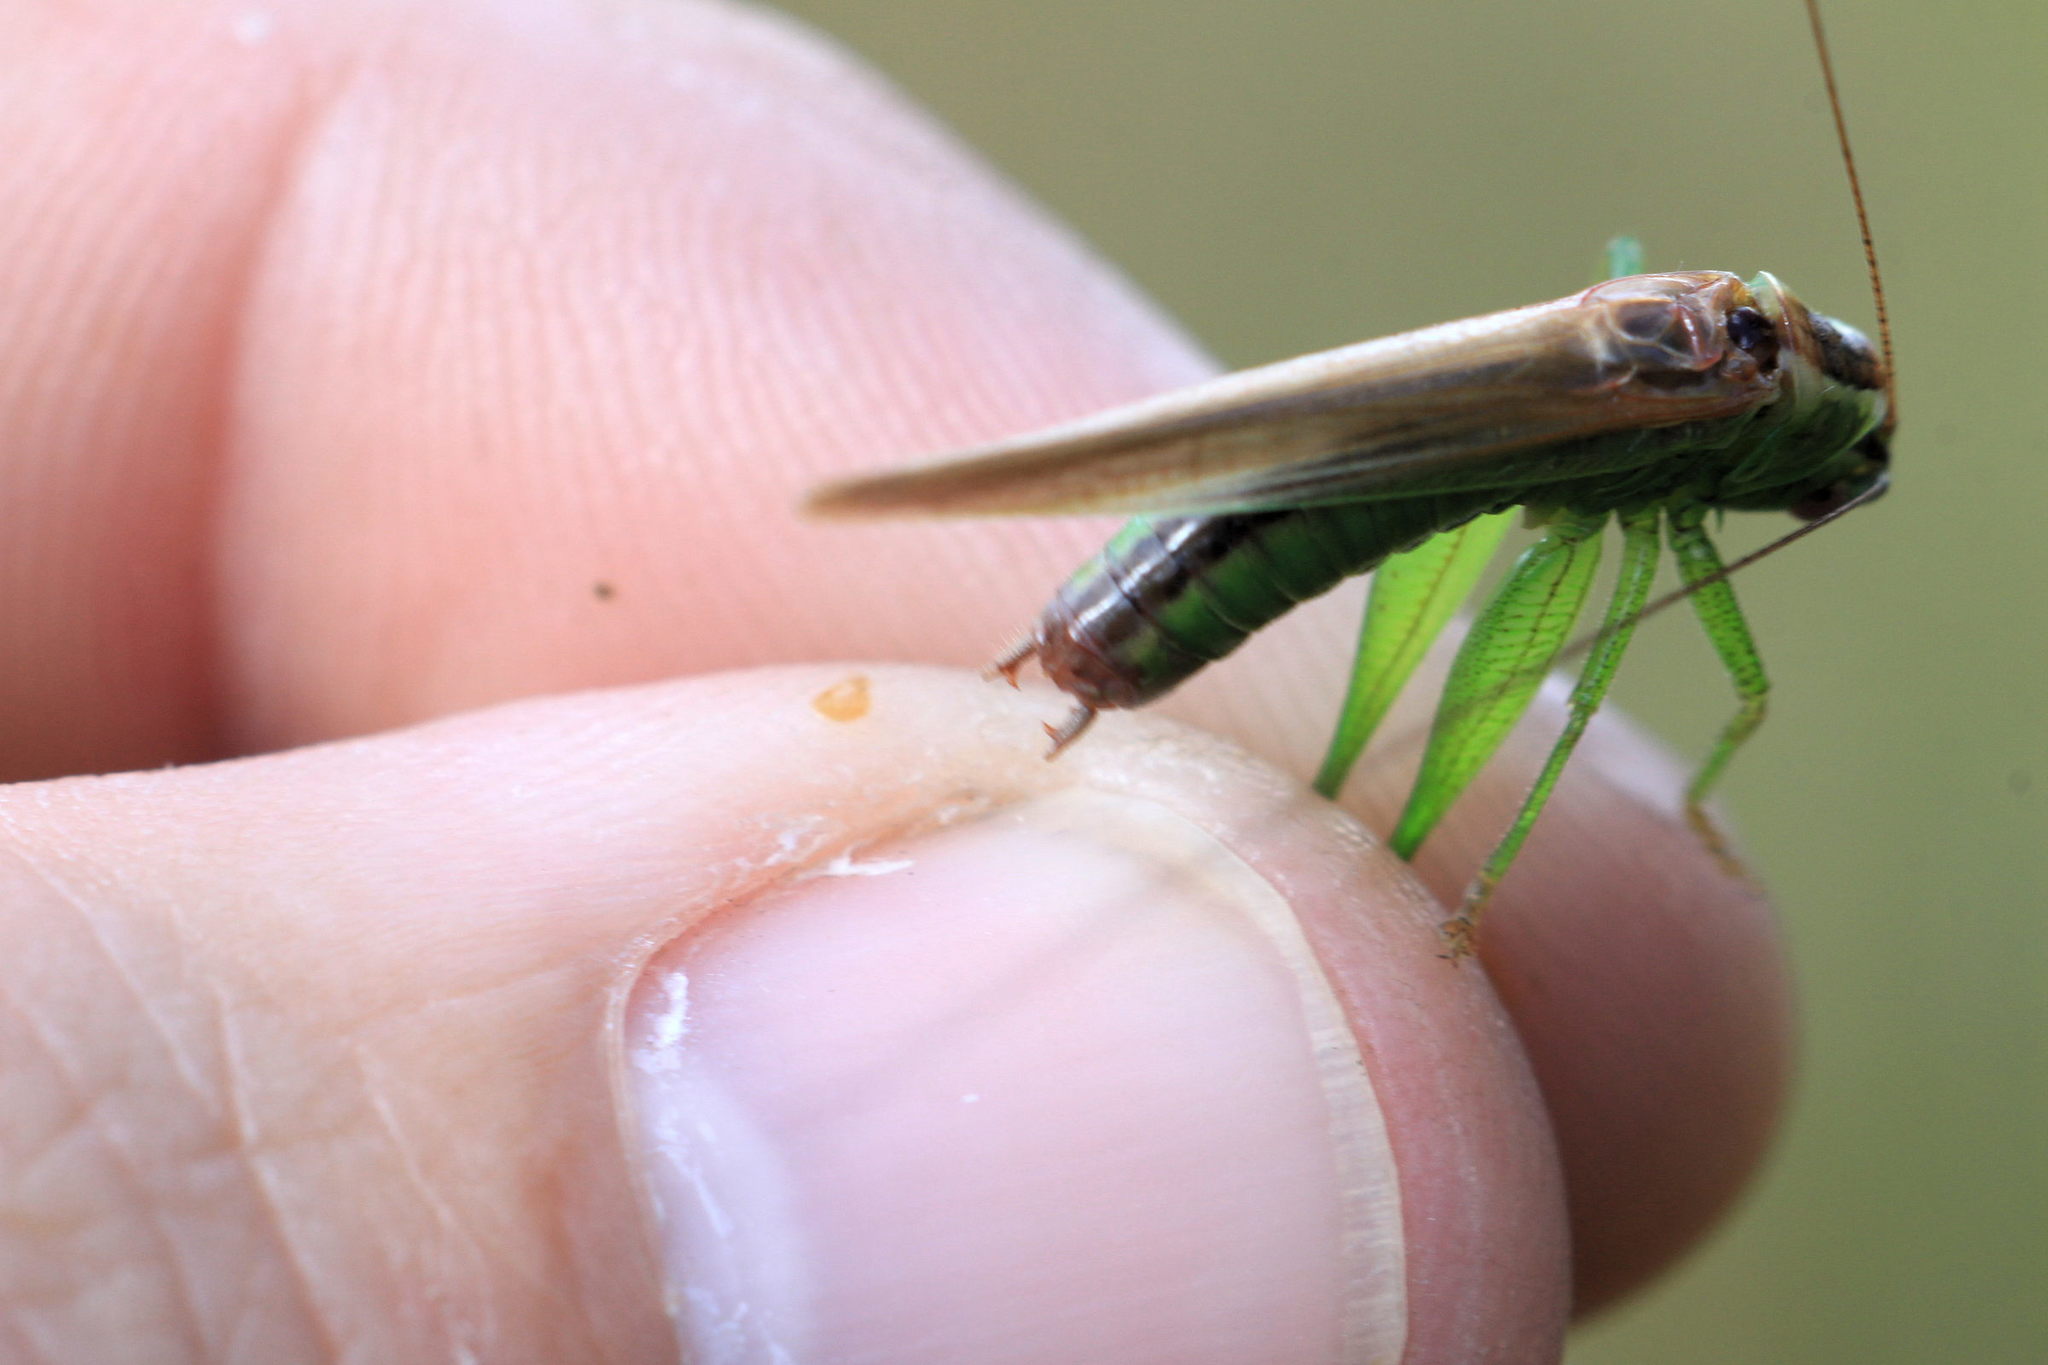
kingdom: Animalia
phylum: Arthropoda
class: Insecta
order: Orthoptera
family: Tettigoniidae
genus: Conocephalus
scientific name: Conocephalus fuscus
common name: Long-winged conehead
